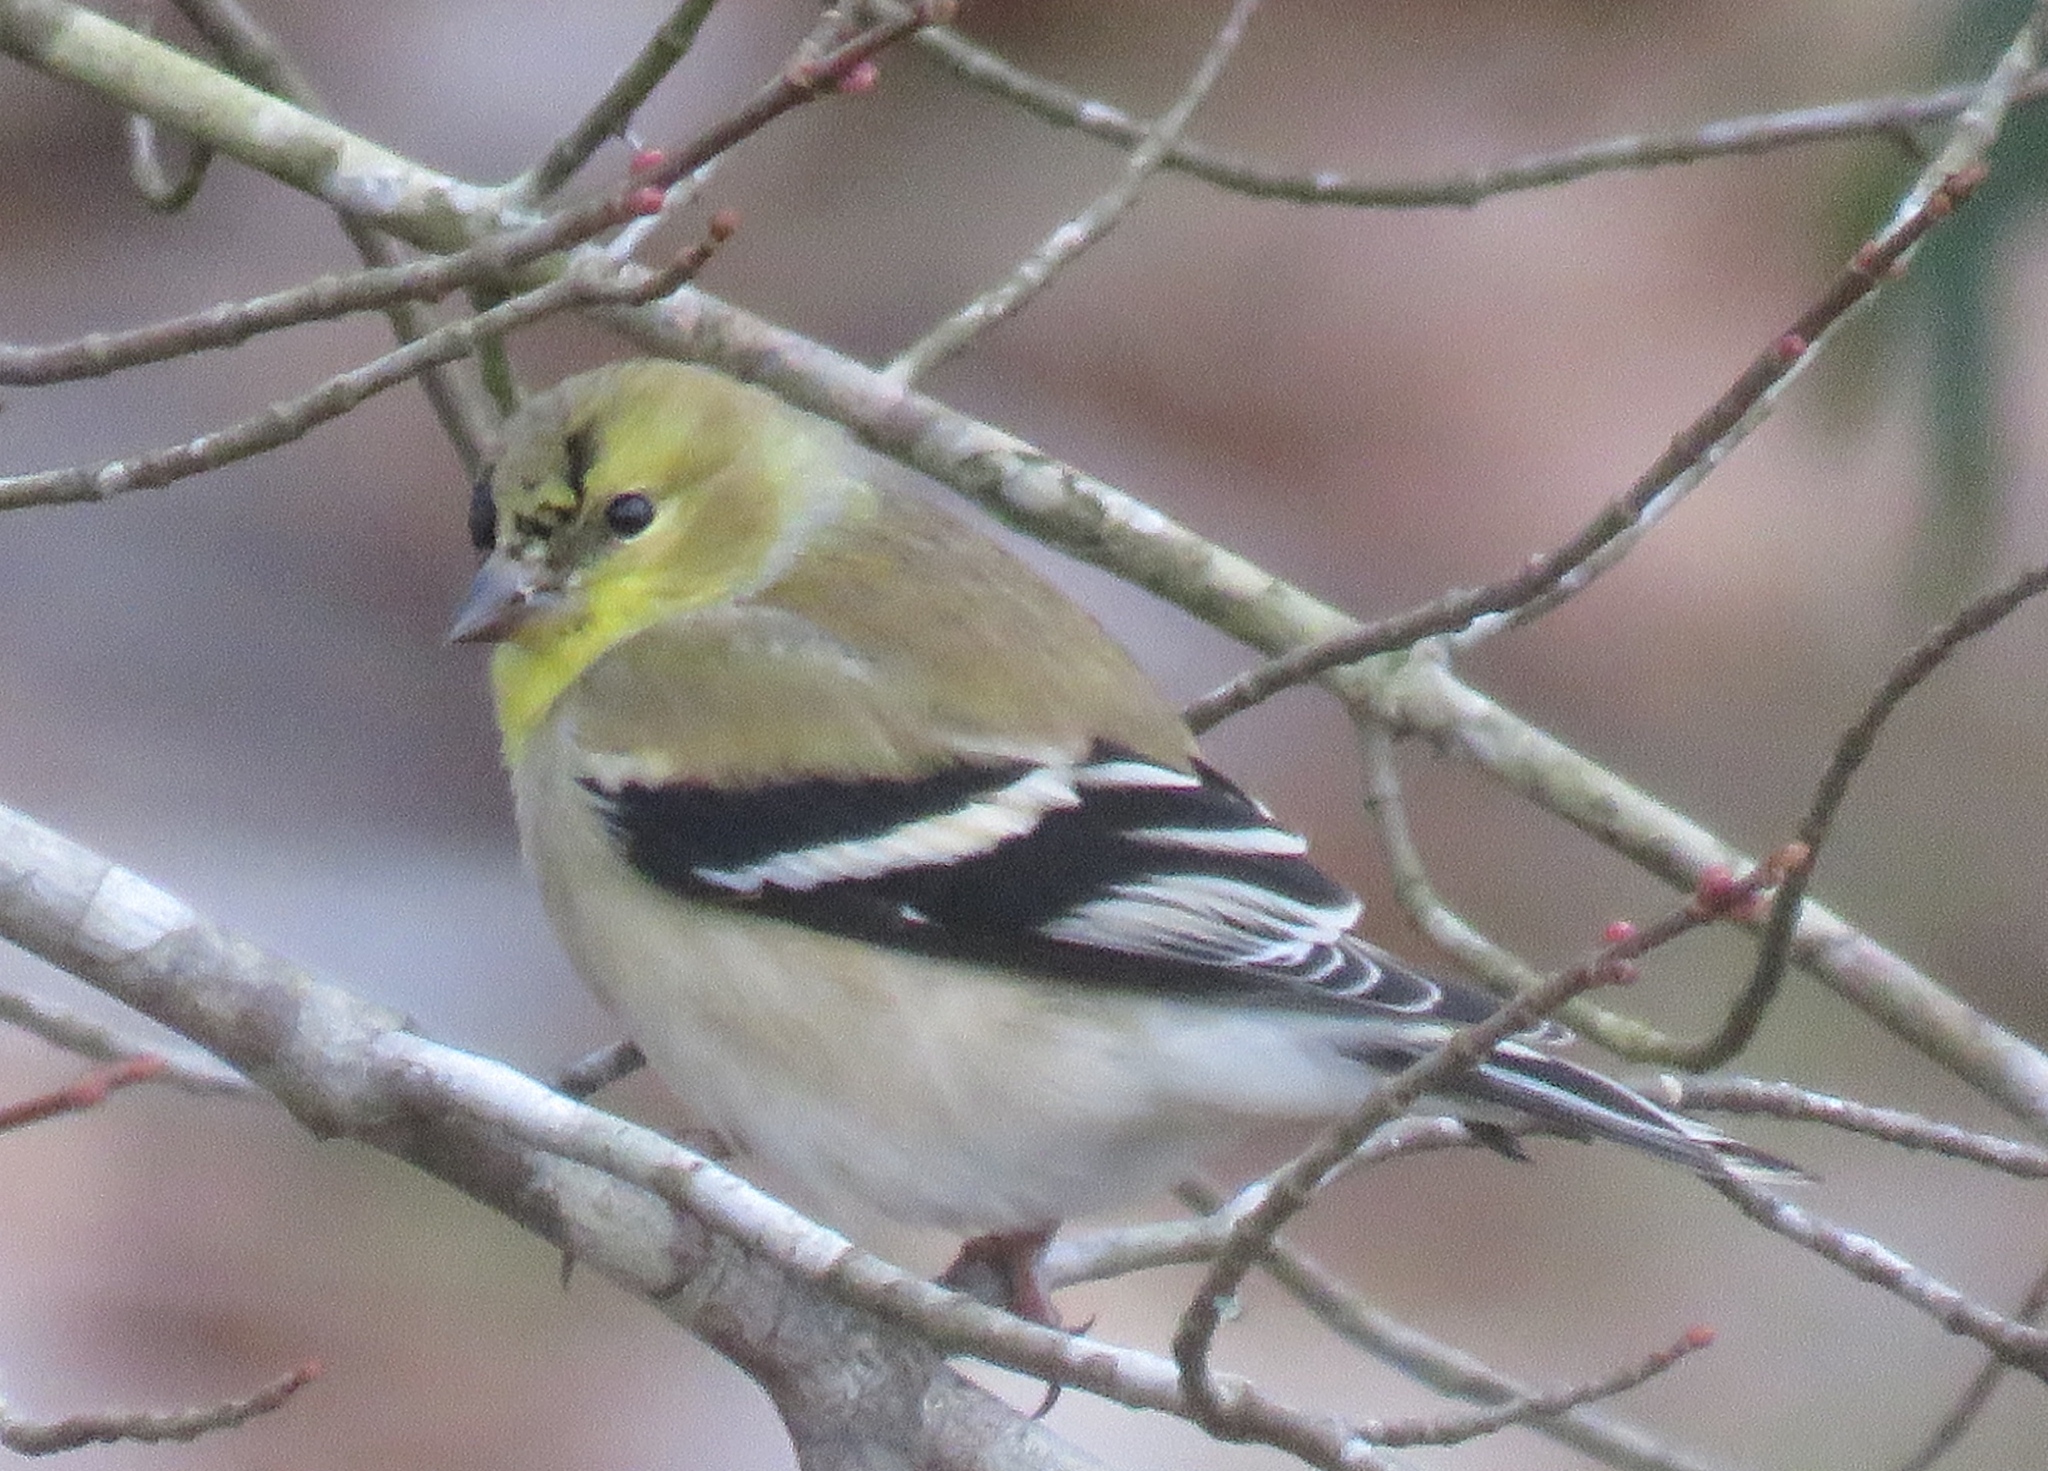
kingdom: Animalia
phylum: Chordata
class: Aves
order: Passeriformes
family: Fringillidae
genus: Spinus
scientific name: Spinus tristis
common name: American goldfinch
